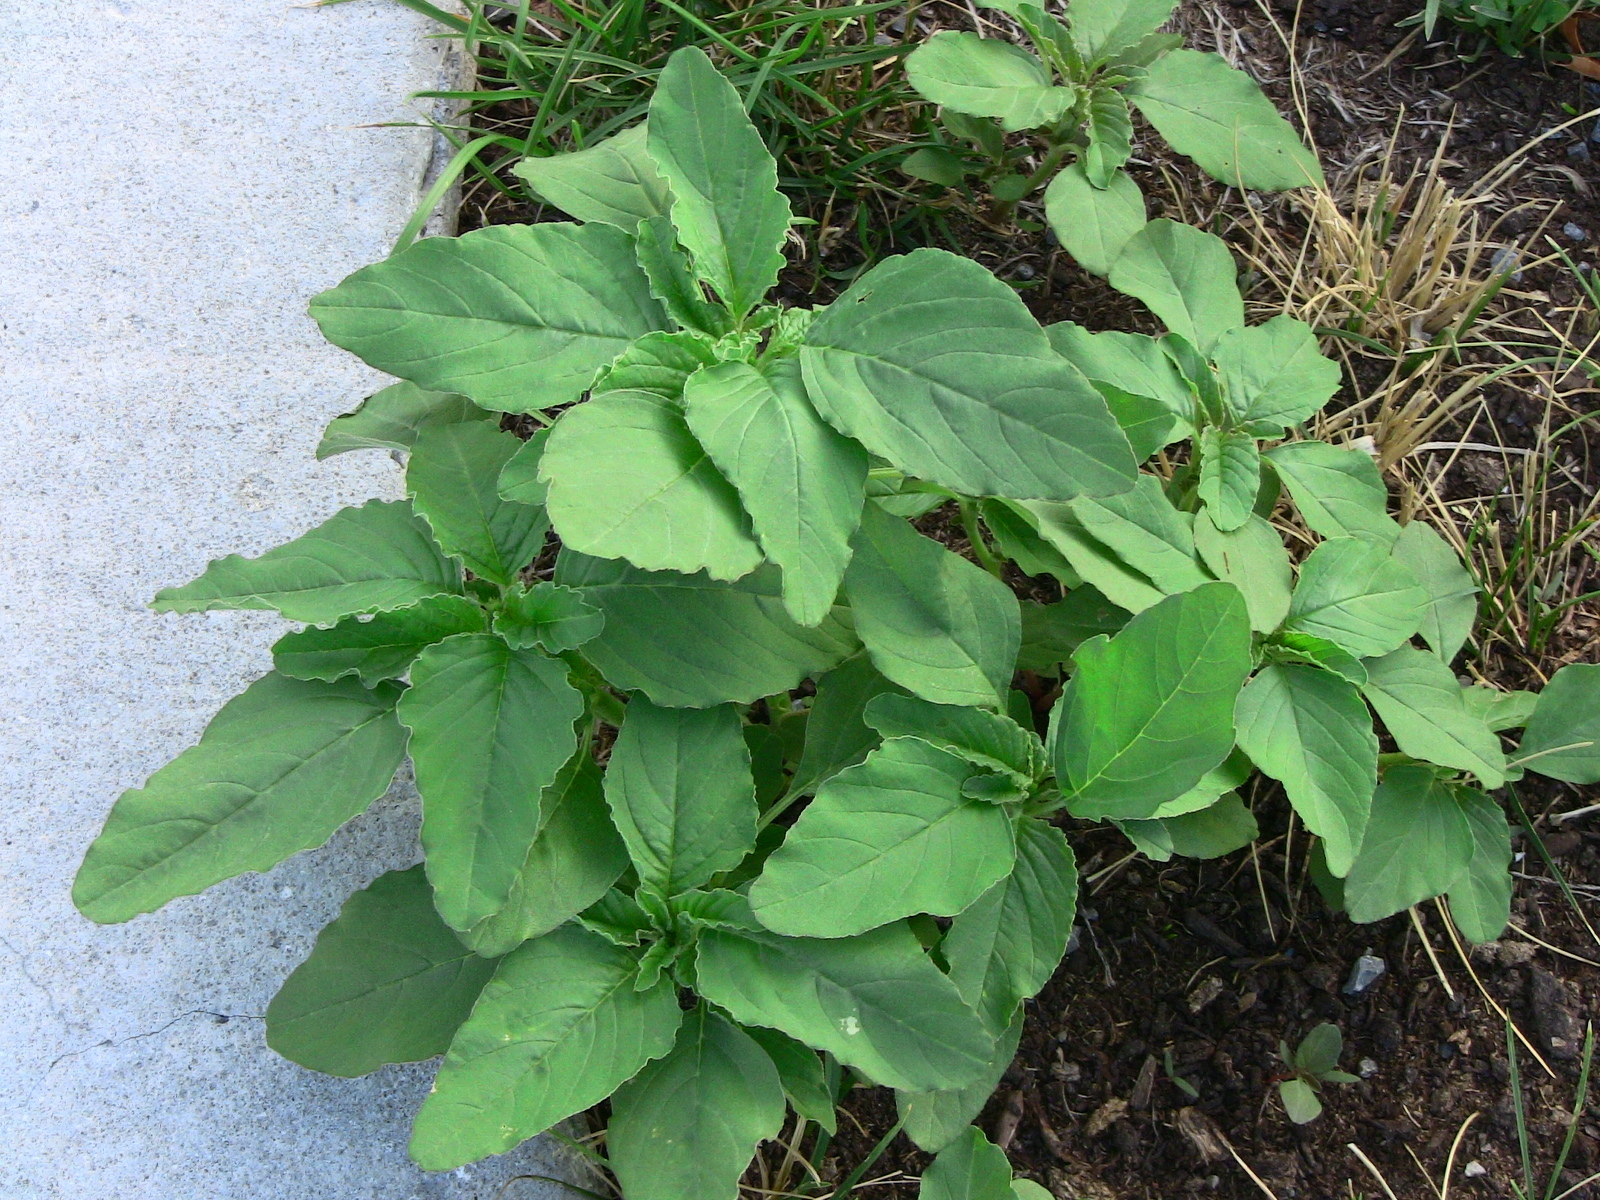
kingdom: Plantae
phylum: Tracheophyta
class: Magnoliopsida
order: Caryophyllales
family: Amaranthaceae
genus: Amaranthus
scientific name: Amaranthus retroflexus
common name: Redroot amaranth
